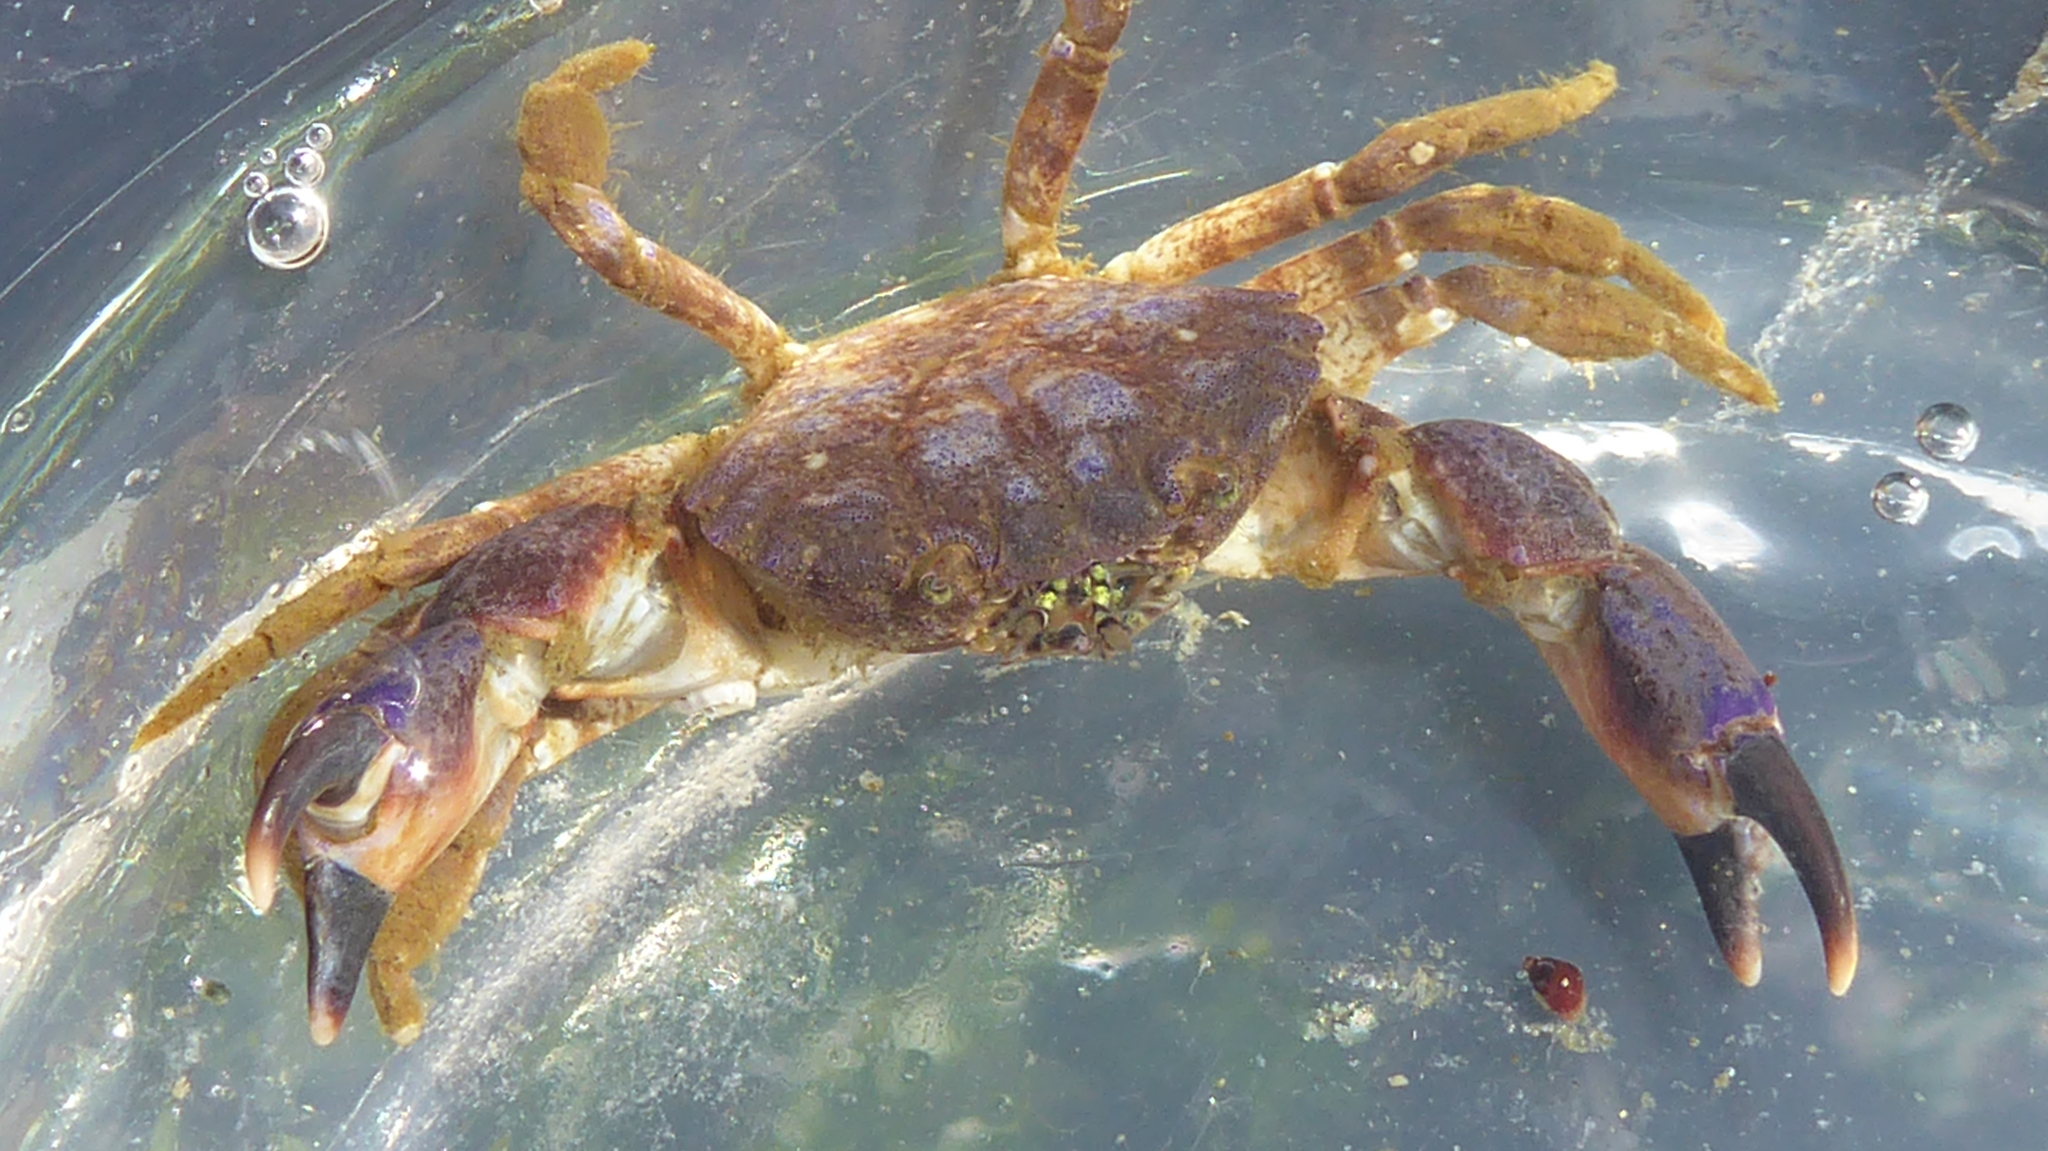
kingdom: Animalia
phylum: Arthropoda
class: Malacostraca
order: Decapoda
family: Panopeidae
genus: Lophopanopeus
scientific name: Lophopanopeus bellus
